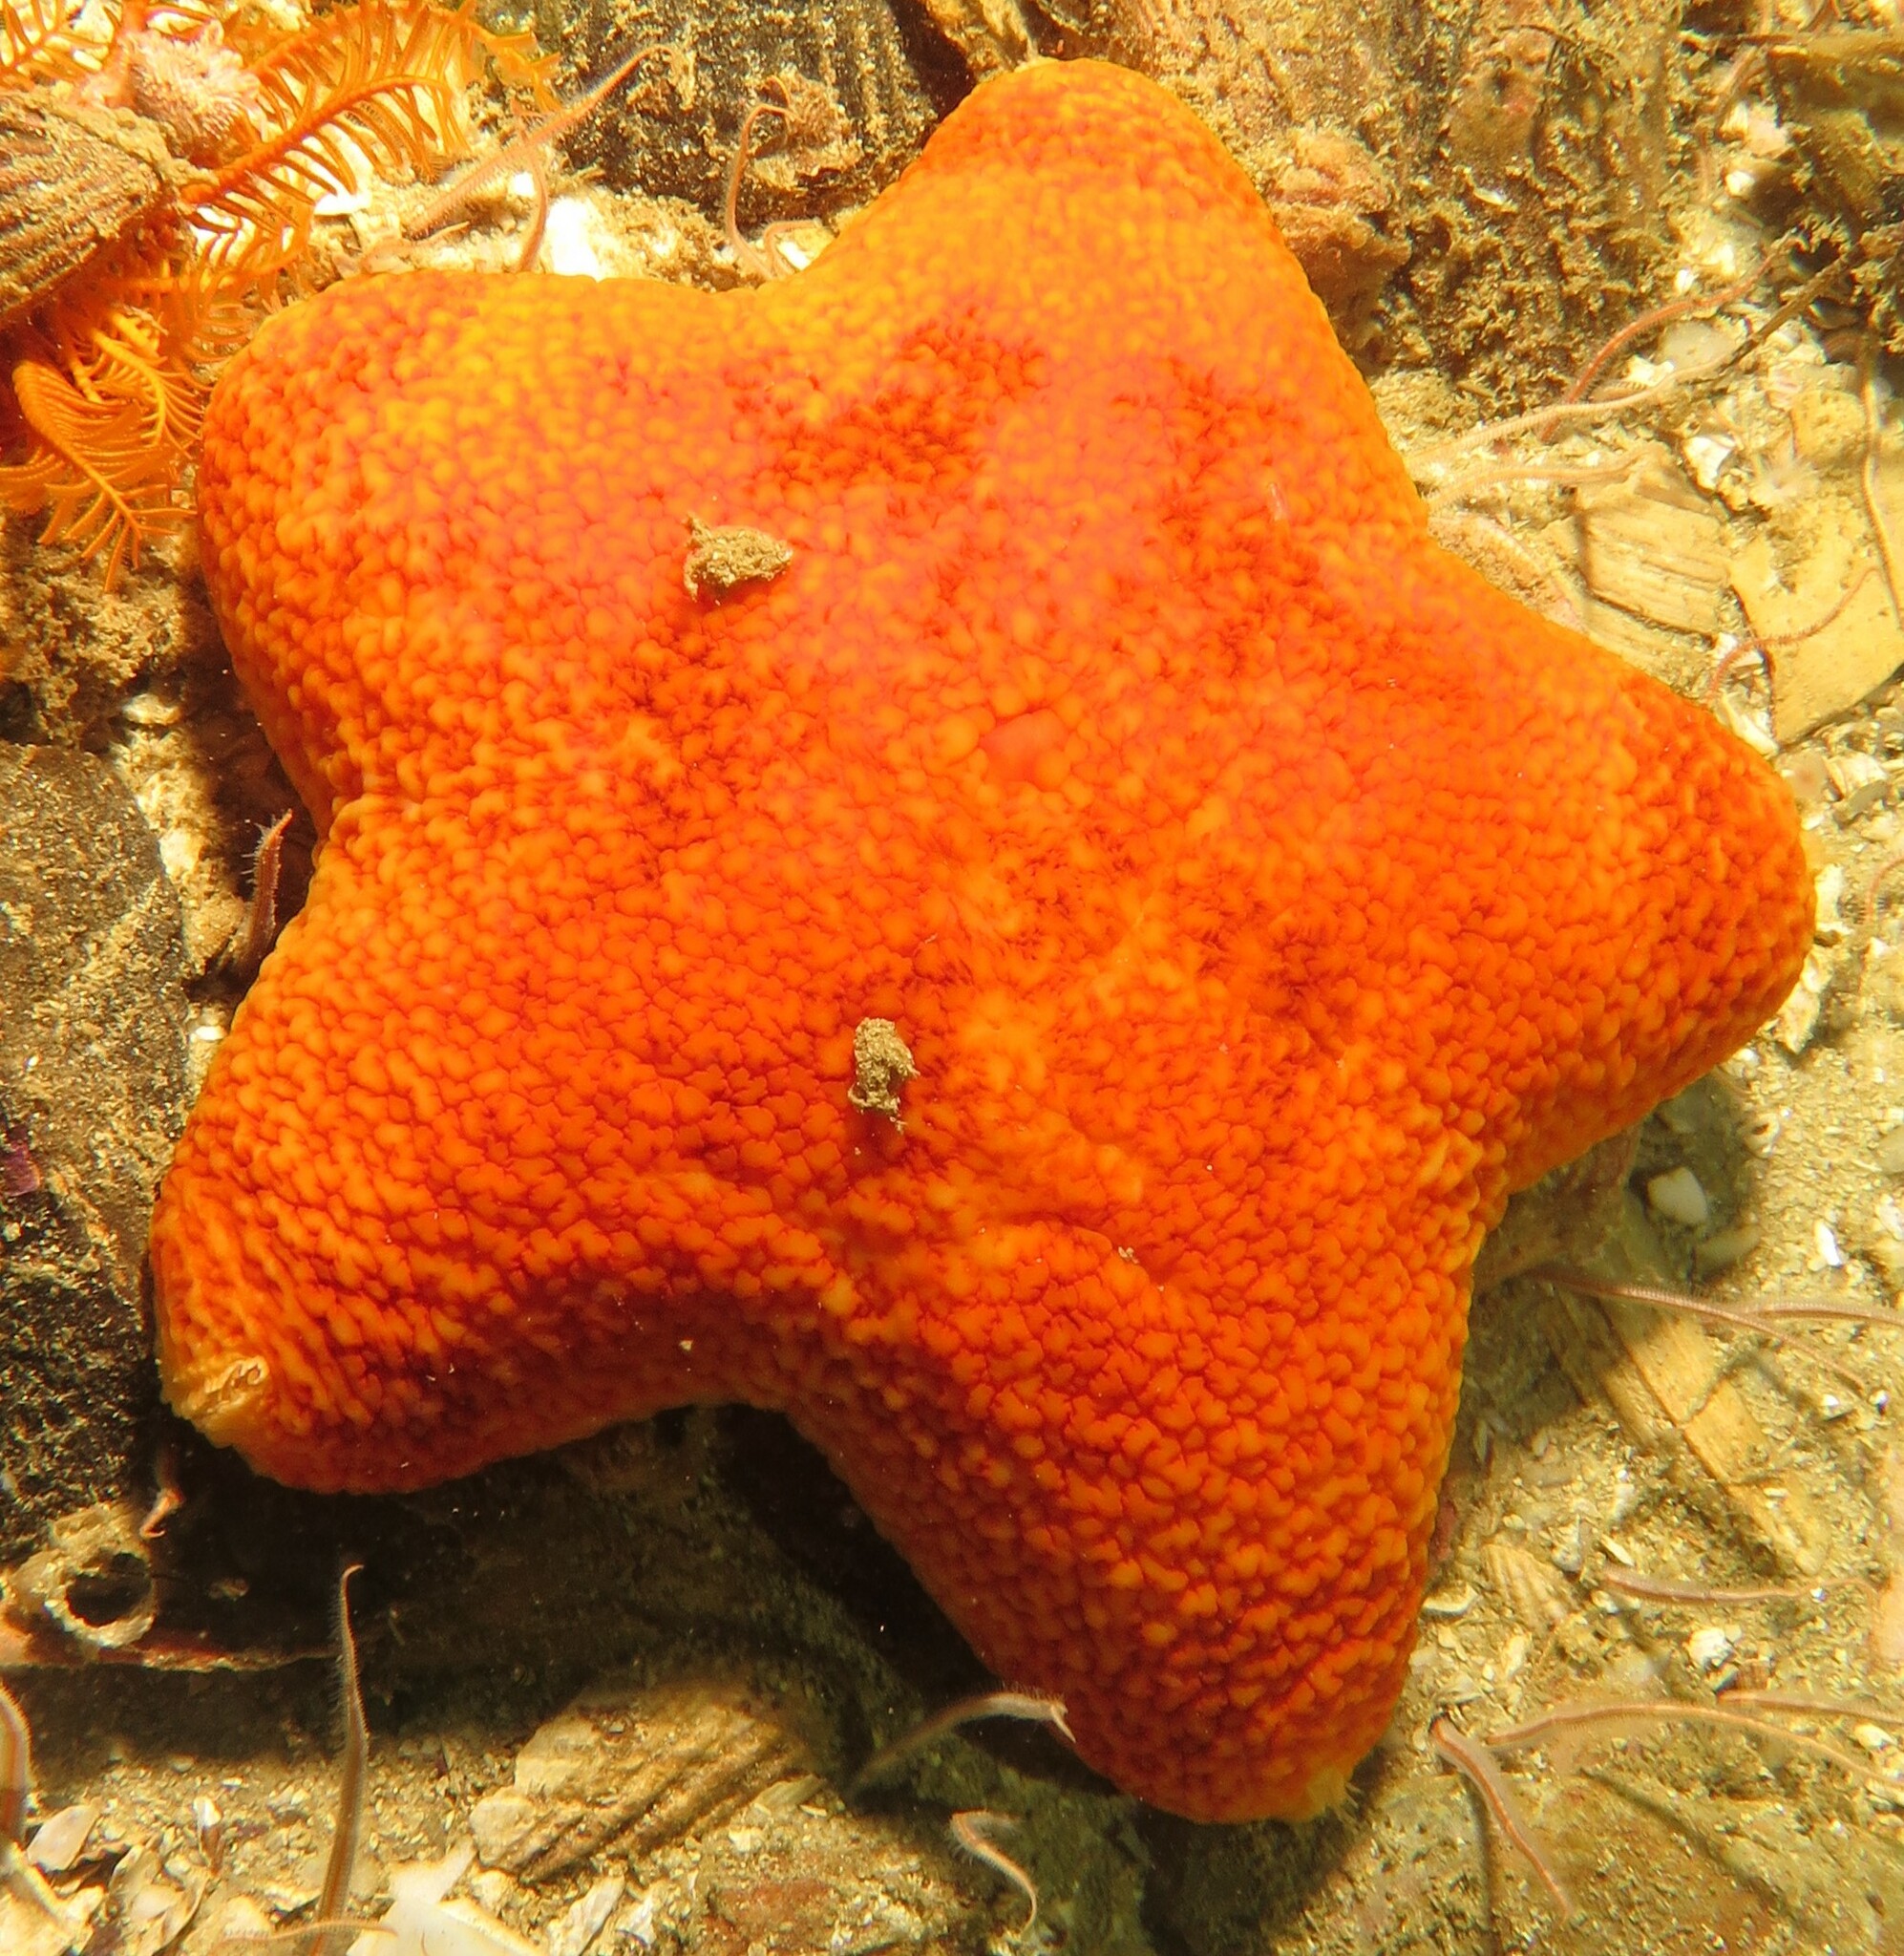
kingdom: Animalia
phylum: Echinodermata
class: Asteroidea
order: Velatida
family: Pterasteridae
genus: Pteraster
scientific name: Pteraster capensis
